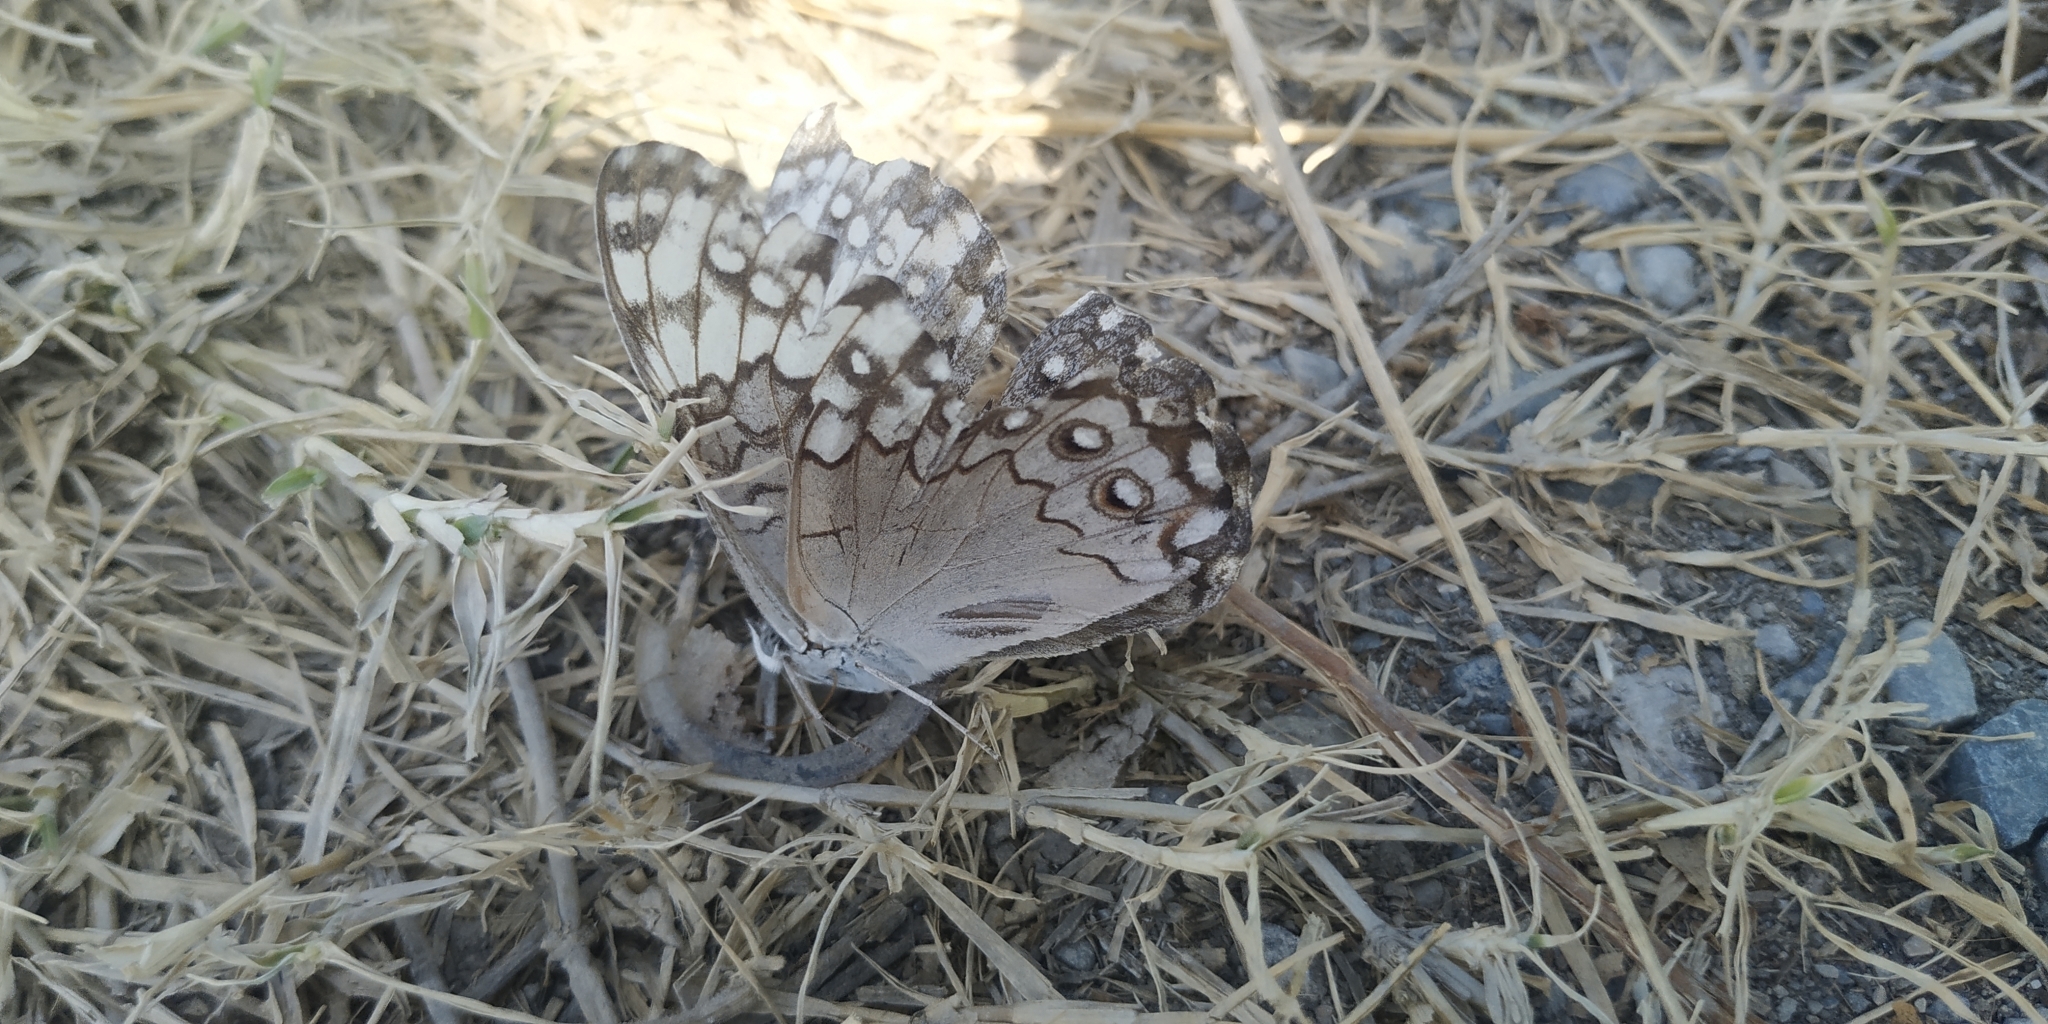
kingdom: Animalia
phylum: Arthropoda
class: Insecta
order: Lepidoptera
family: Nymphalidae
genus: Hamadryas
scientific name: Hamadryas glauconome
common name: Glaucous cracker
